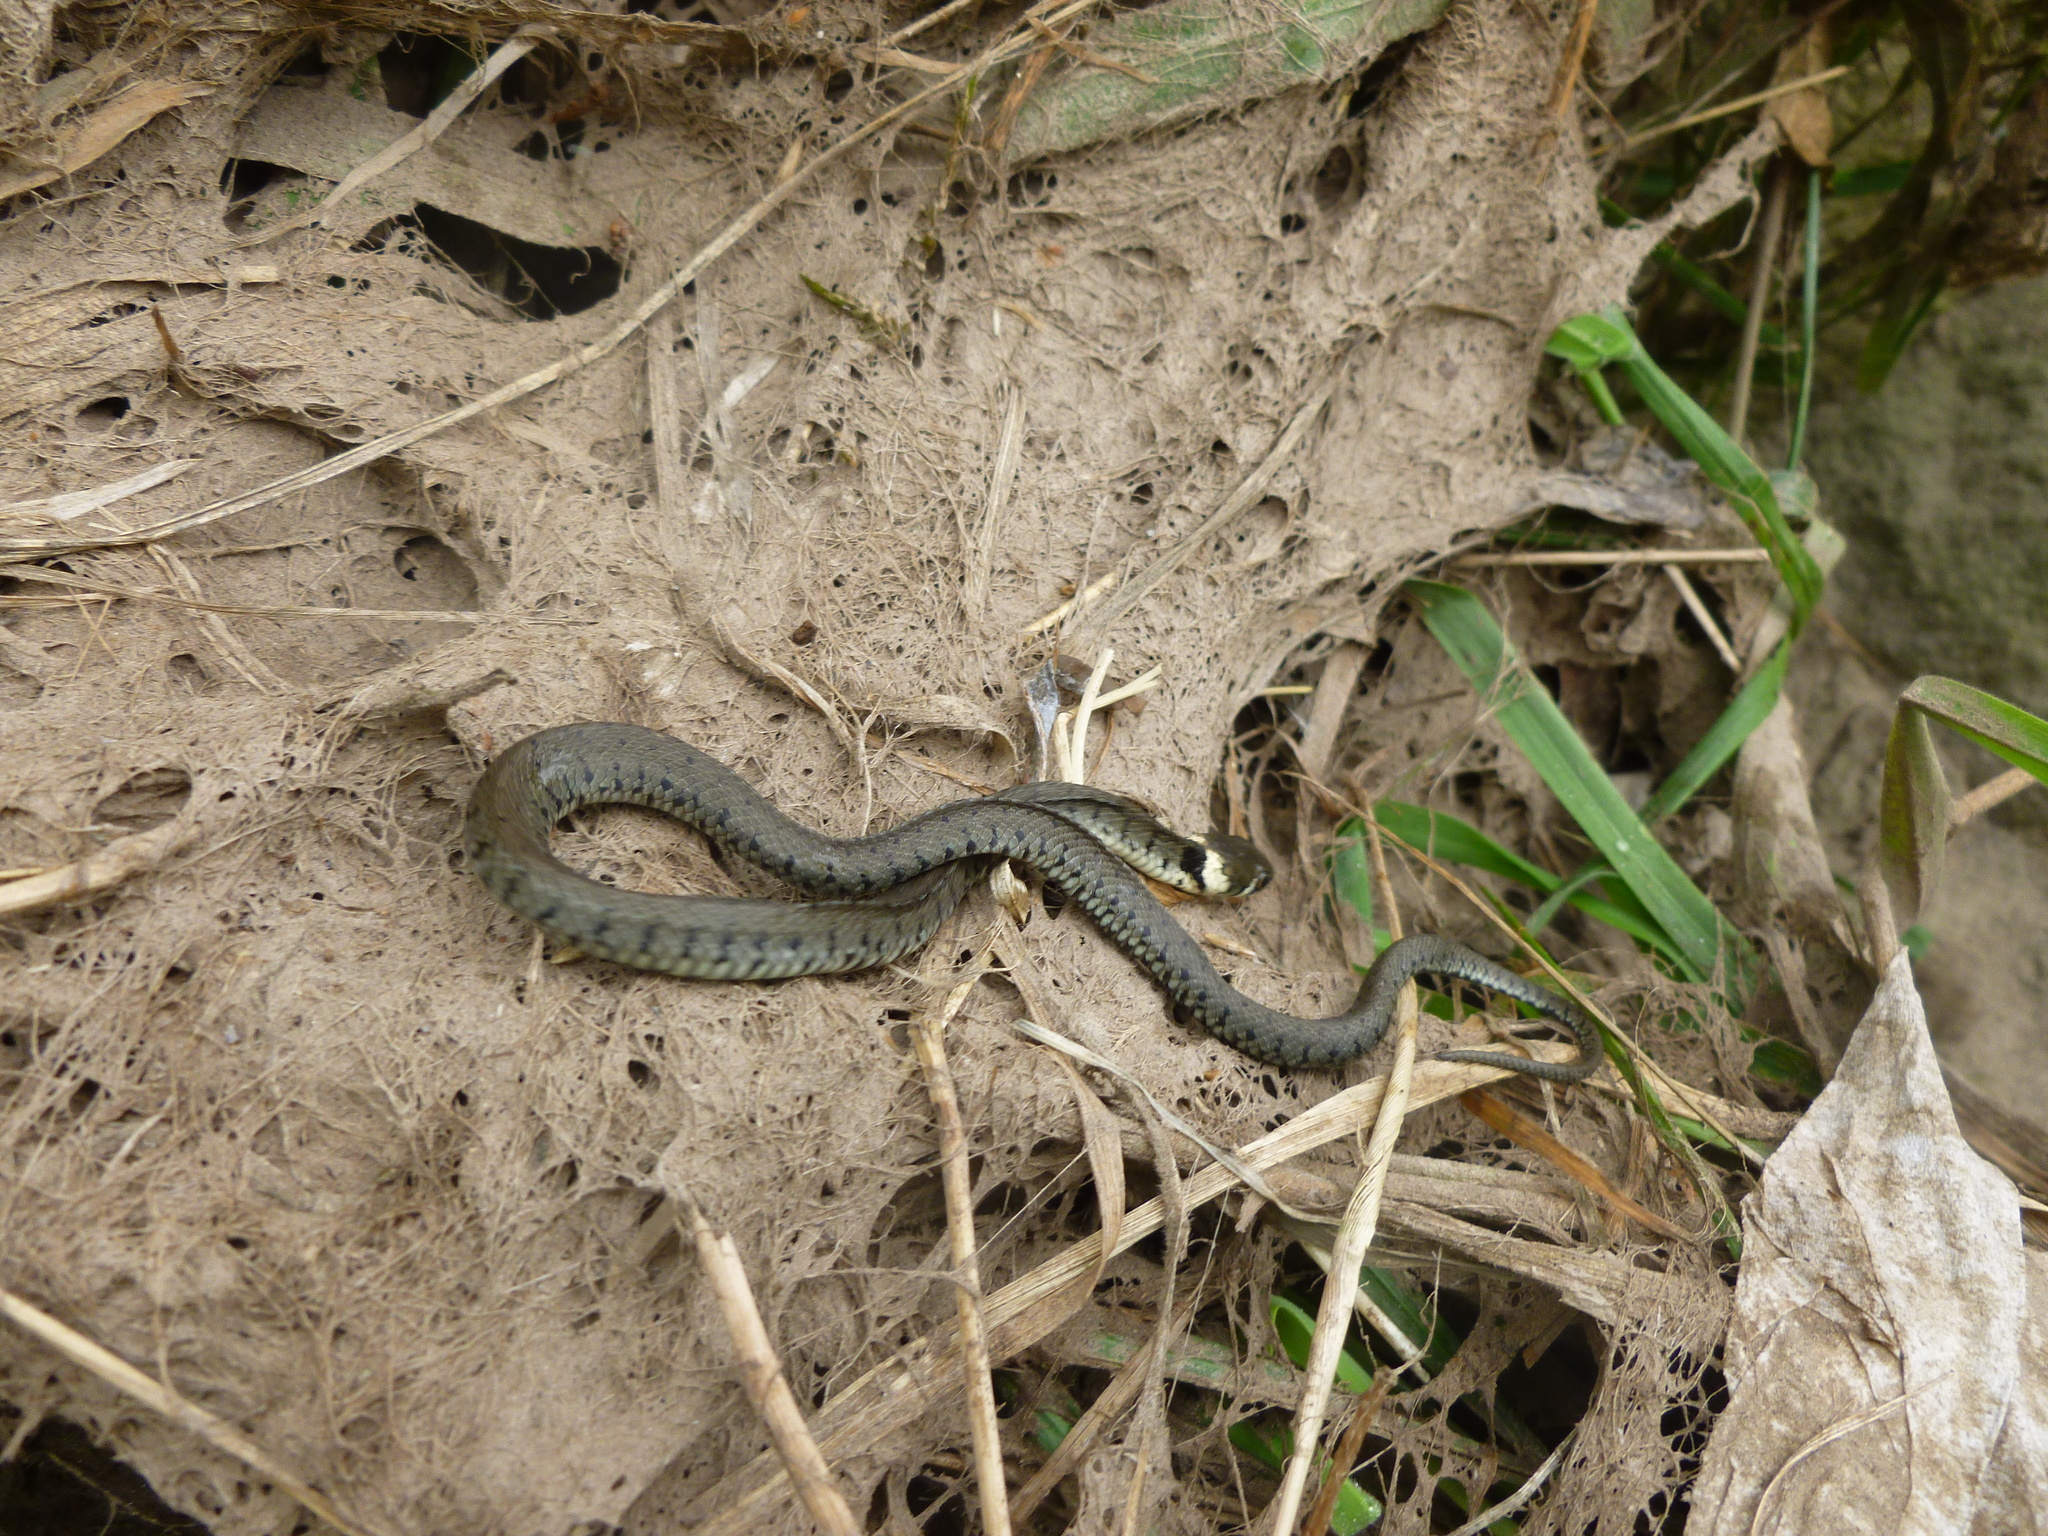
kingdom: Animalia
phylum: Chordata
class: Squamata
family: Colubridae
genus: Natrix
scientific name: Natrix helvetica
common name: Banded grass snake
